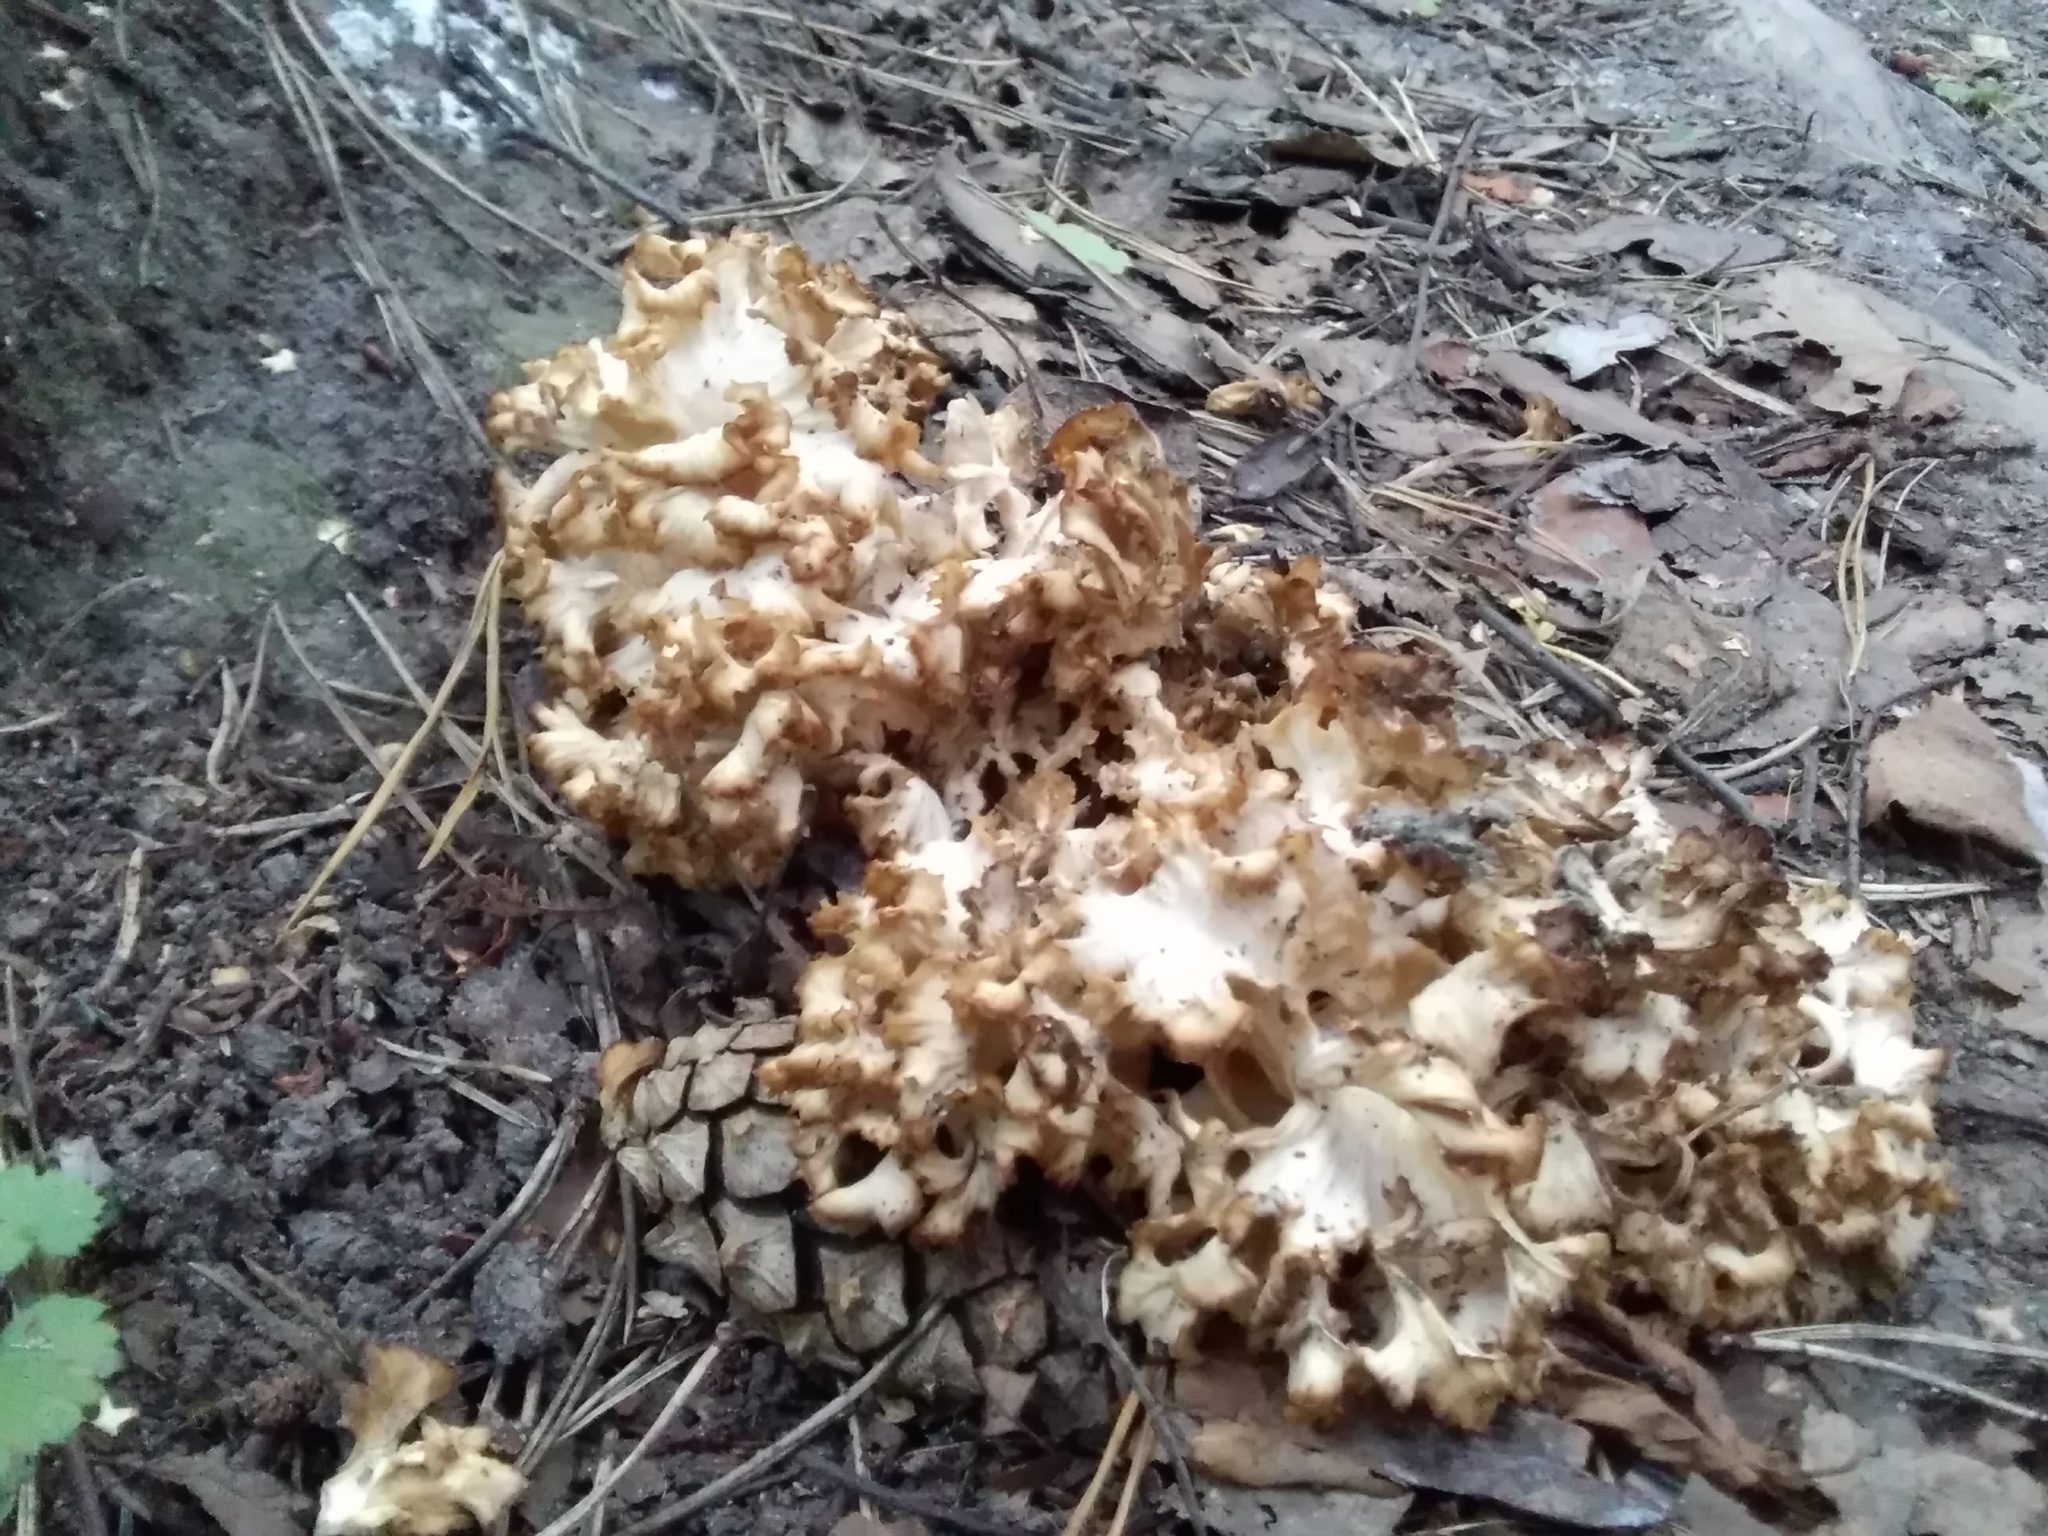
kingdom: Fungi
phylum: Basidiomycota
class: Agaricomycetes
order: Polyporales
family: Sparassidaceae
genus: Sparassis
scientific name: Sparassis crispa
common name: Brain fungus
